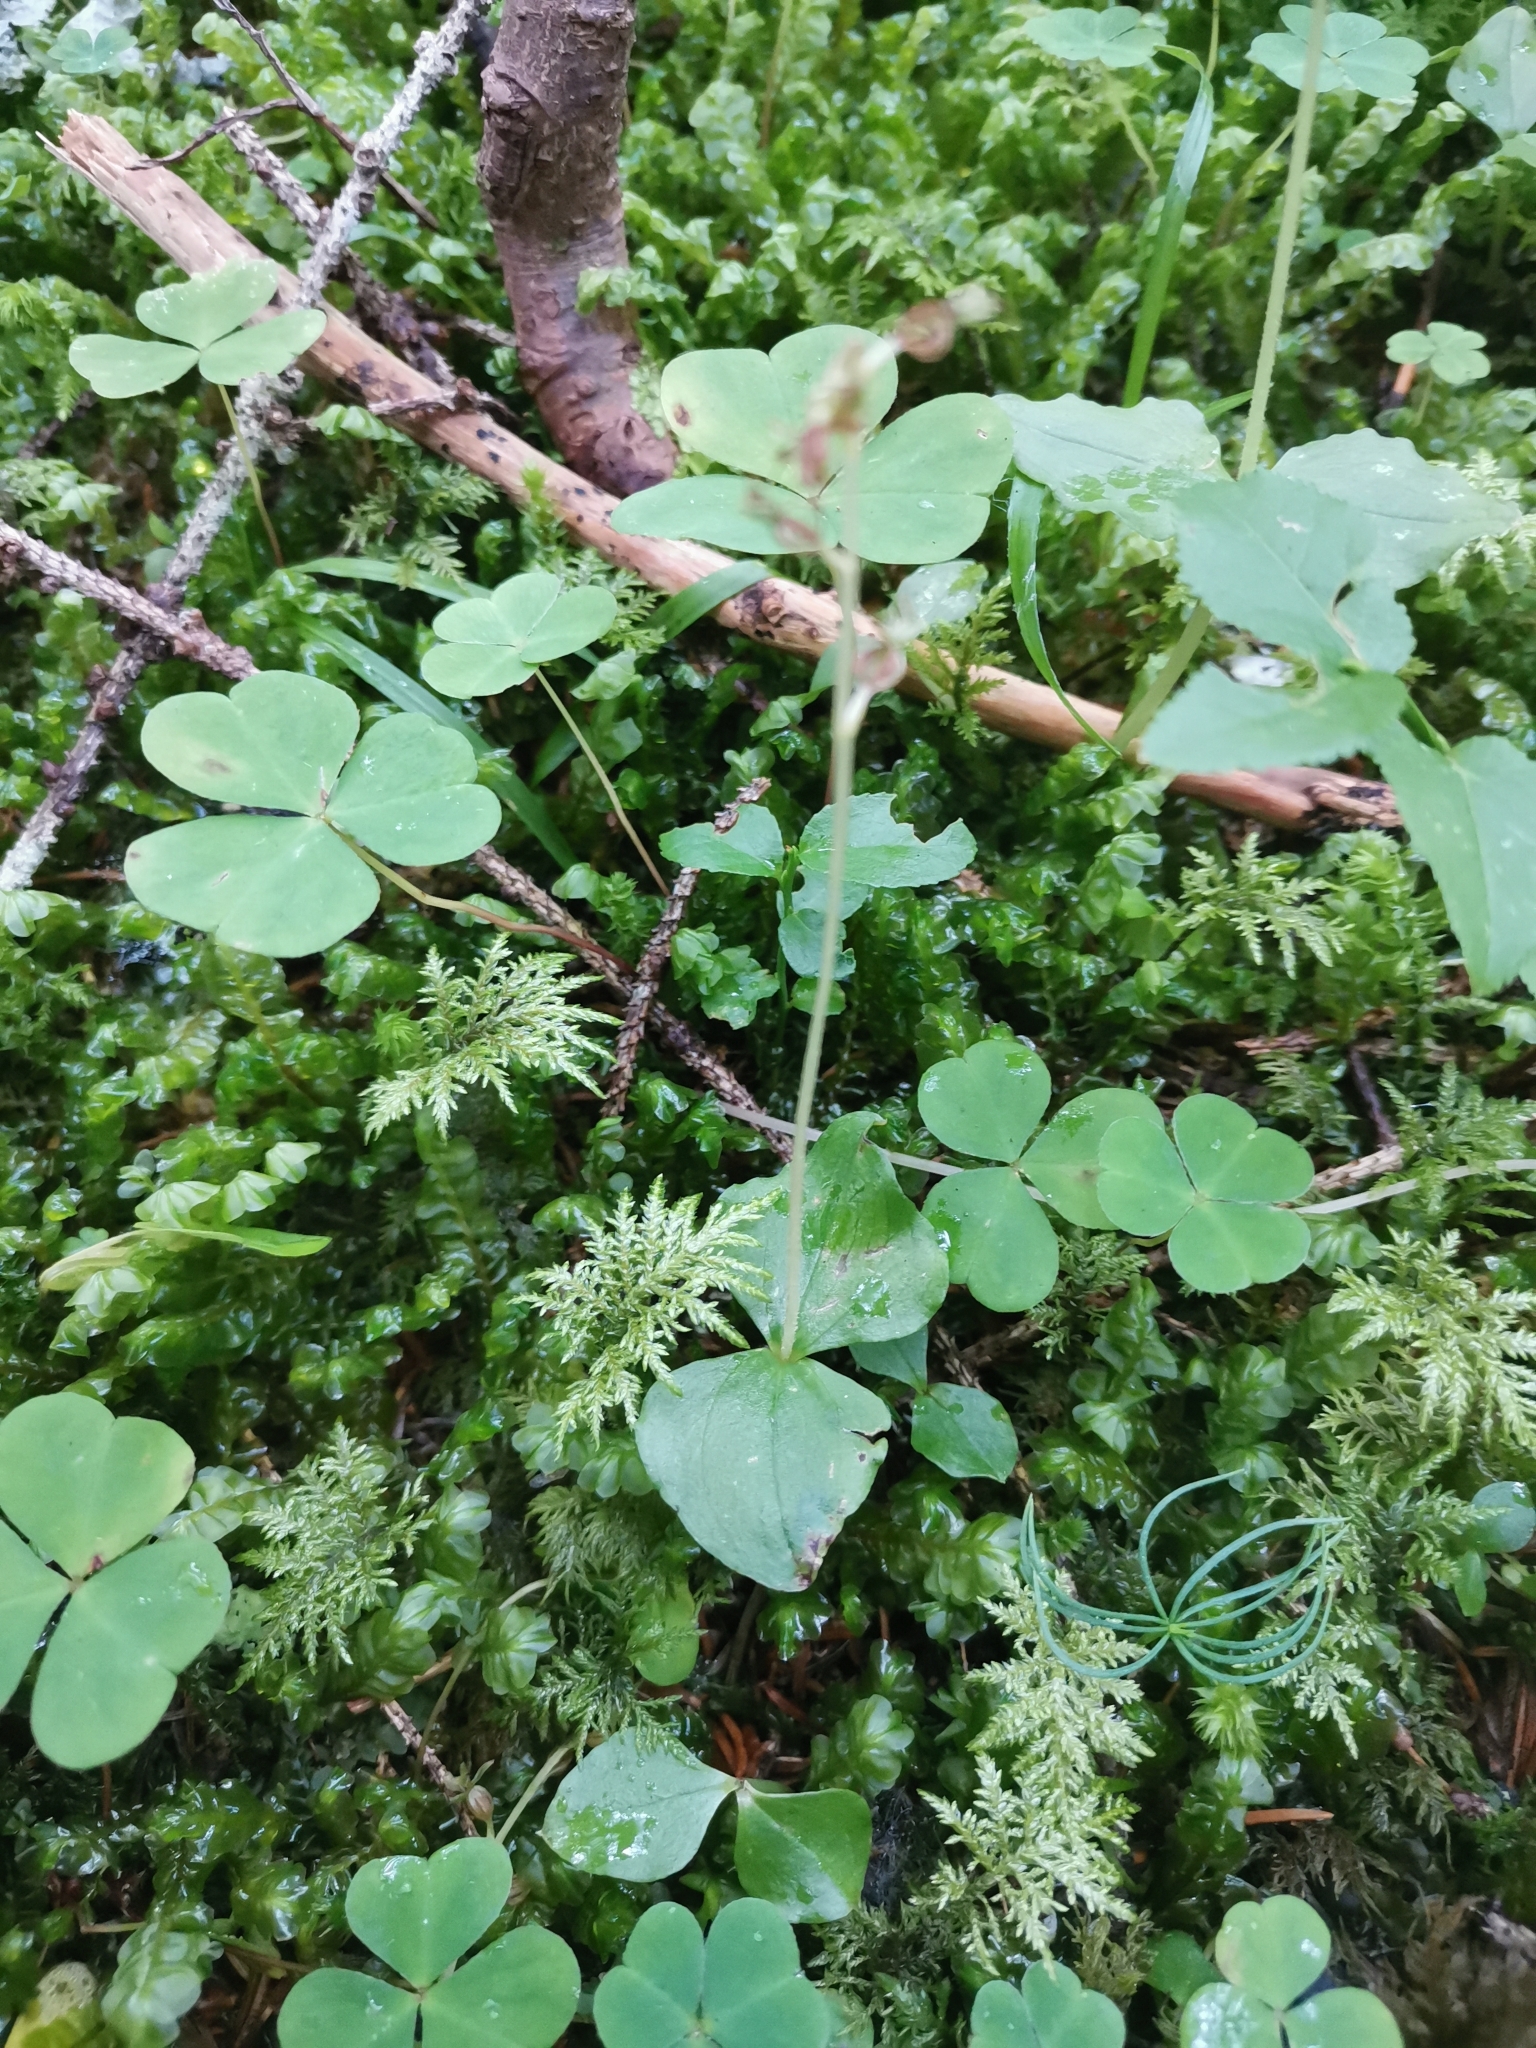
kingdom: Plantae
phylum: Tracheophyta
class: Liliopsida
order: Asparagales
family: Orchidaceae
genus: Neottia
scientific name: Neottia cordata
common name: Lesser twayblade
